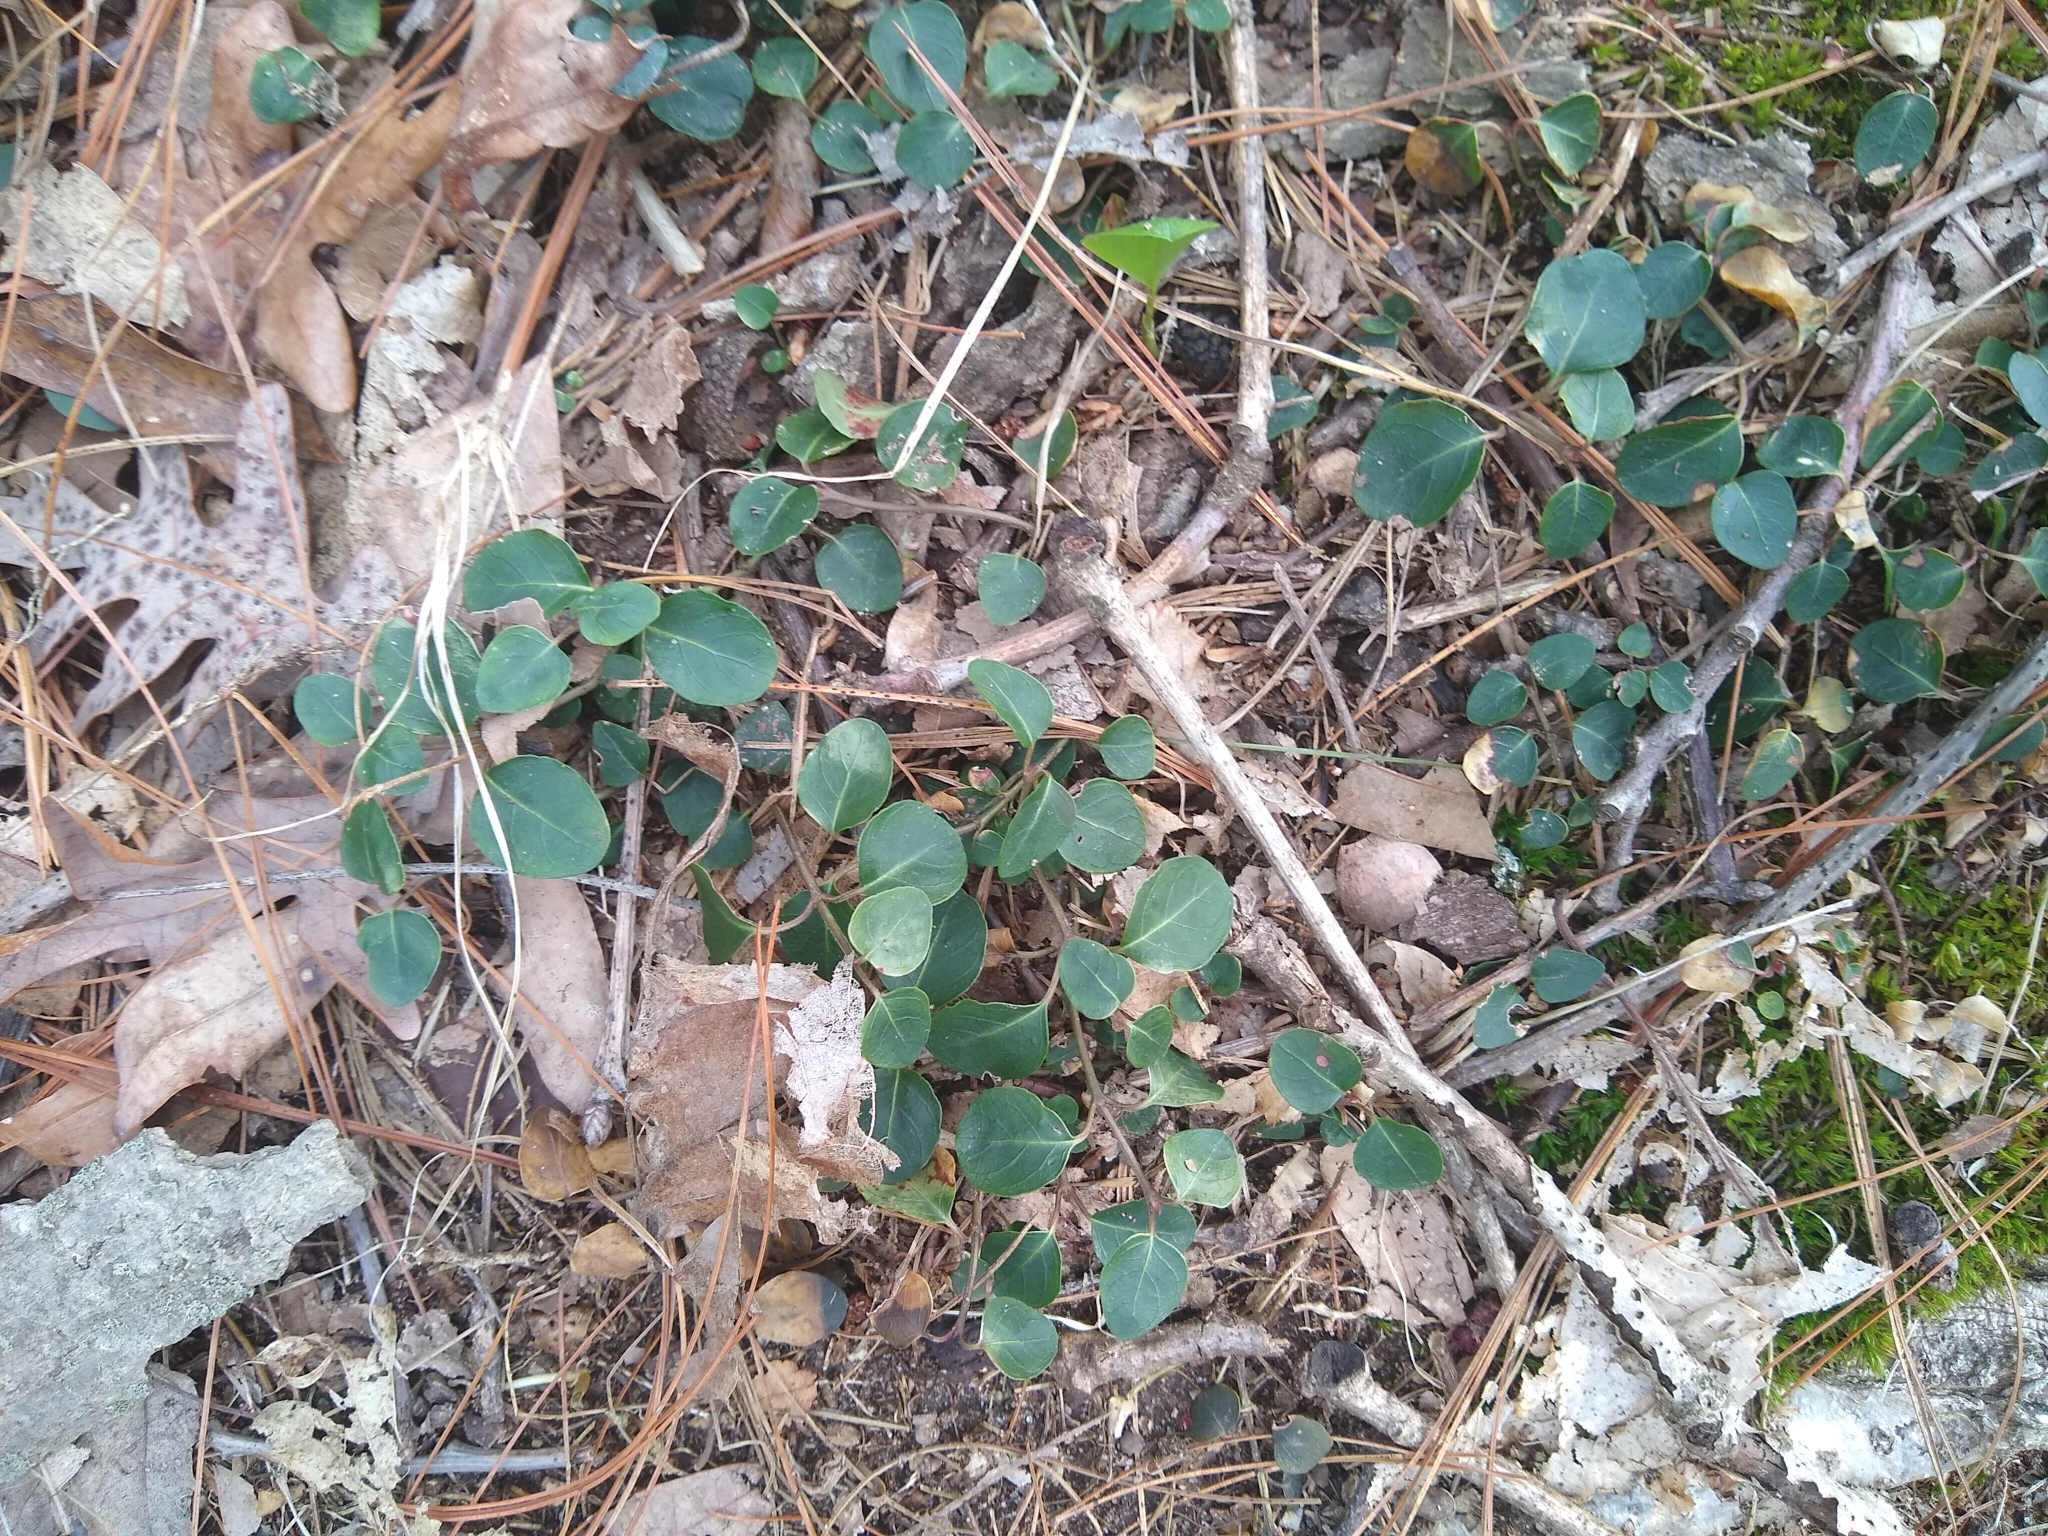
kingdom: Plantae
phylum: Tracheophyta
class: Magnoliopsida
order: Gentianales
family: Rubiaceae
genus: Mitchella
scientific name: Mitchella repens
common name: Partridge-berry
